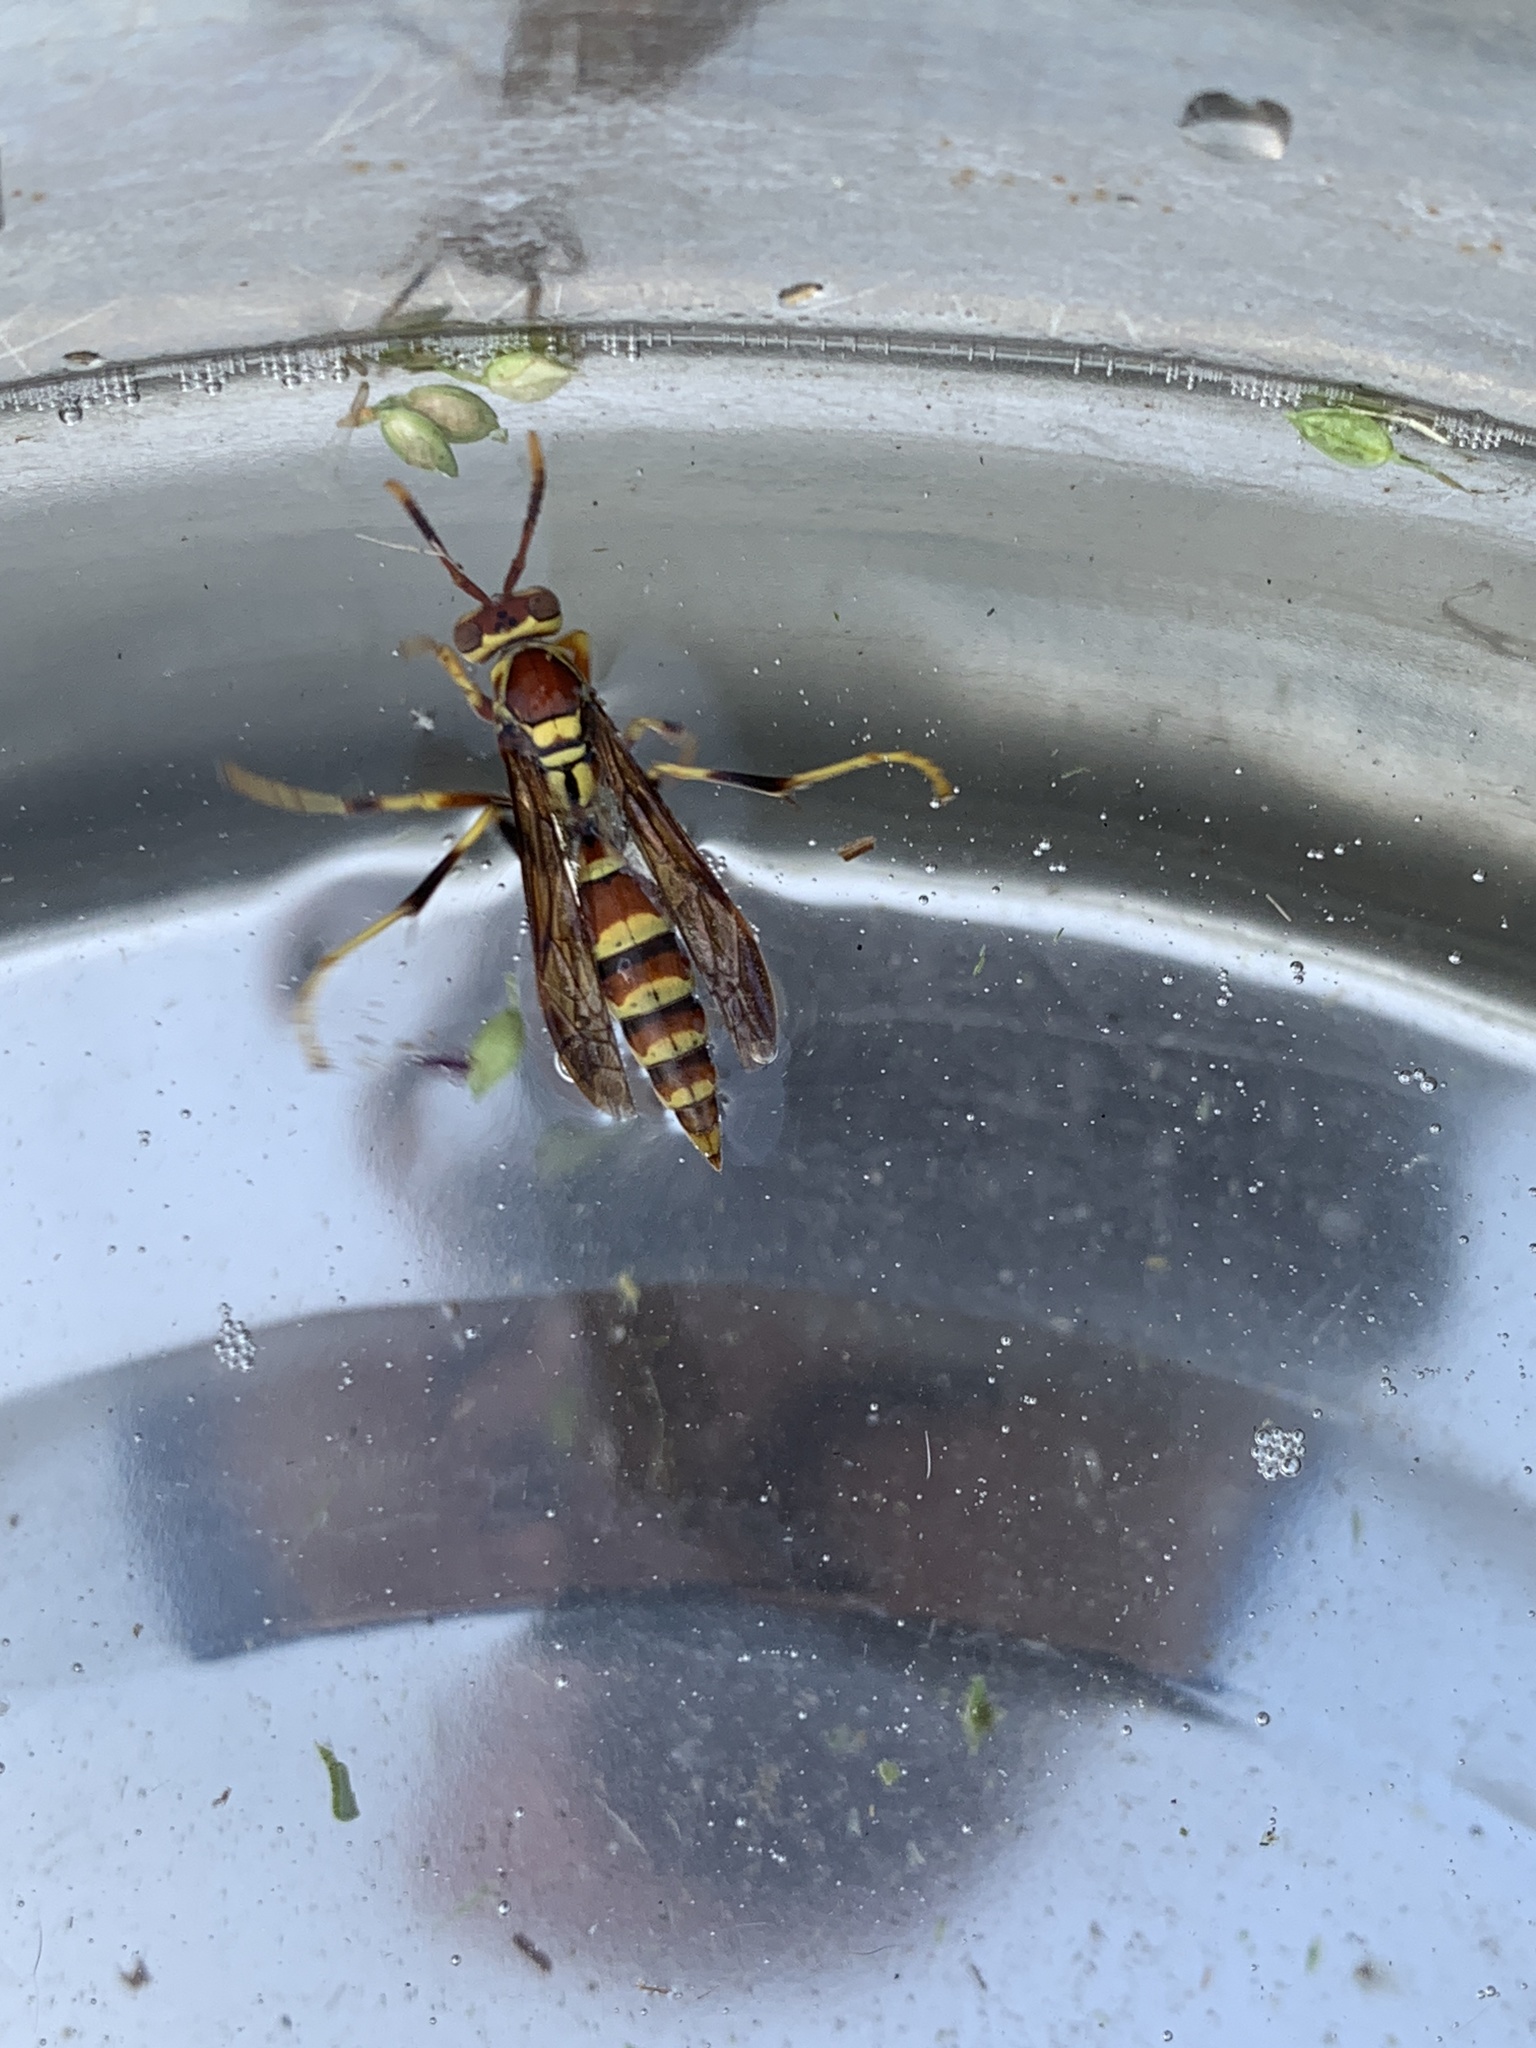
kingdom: Animalia
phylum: Arthropoda
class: Insecta
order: Hymenoptera
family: Eumenidae
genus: Polistes
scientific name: Polistes exclamans
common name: Paper wasp
